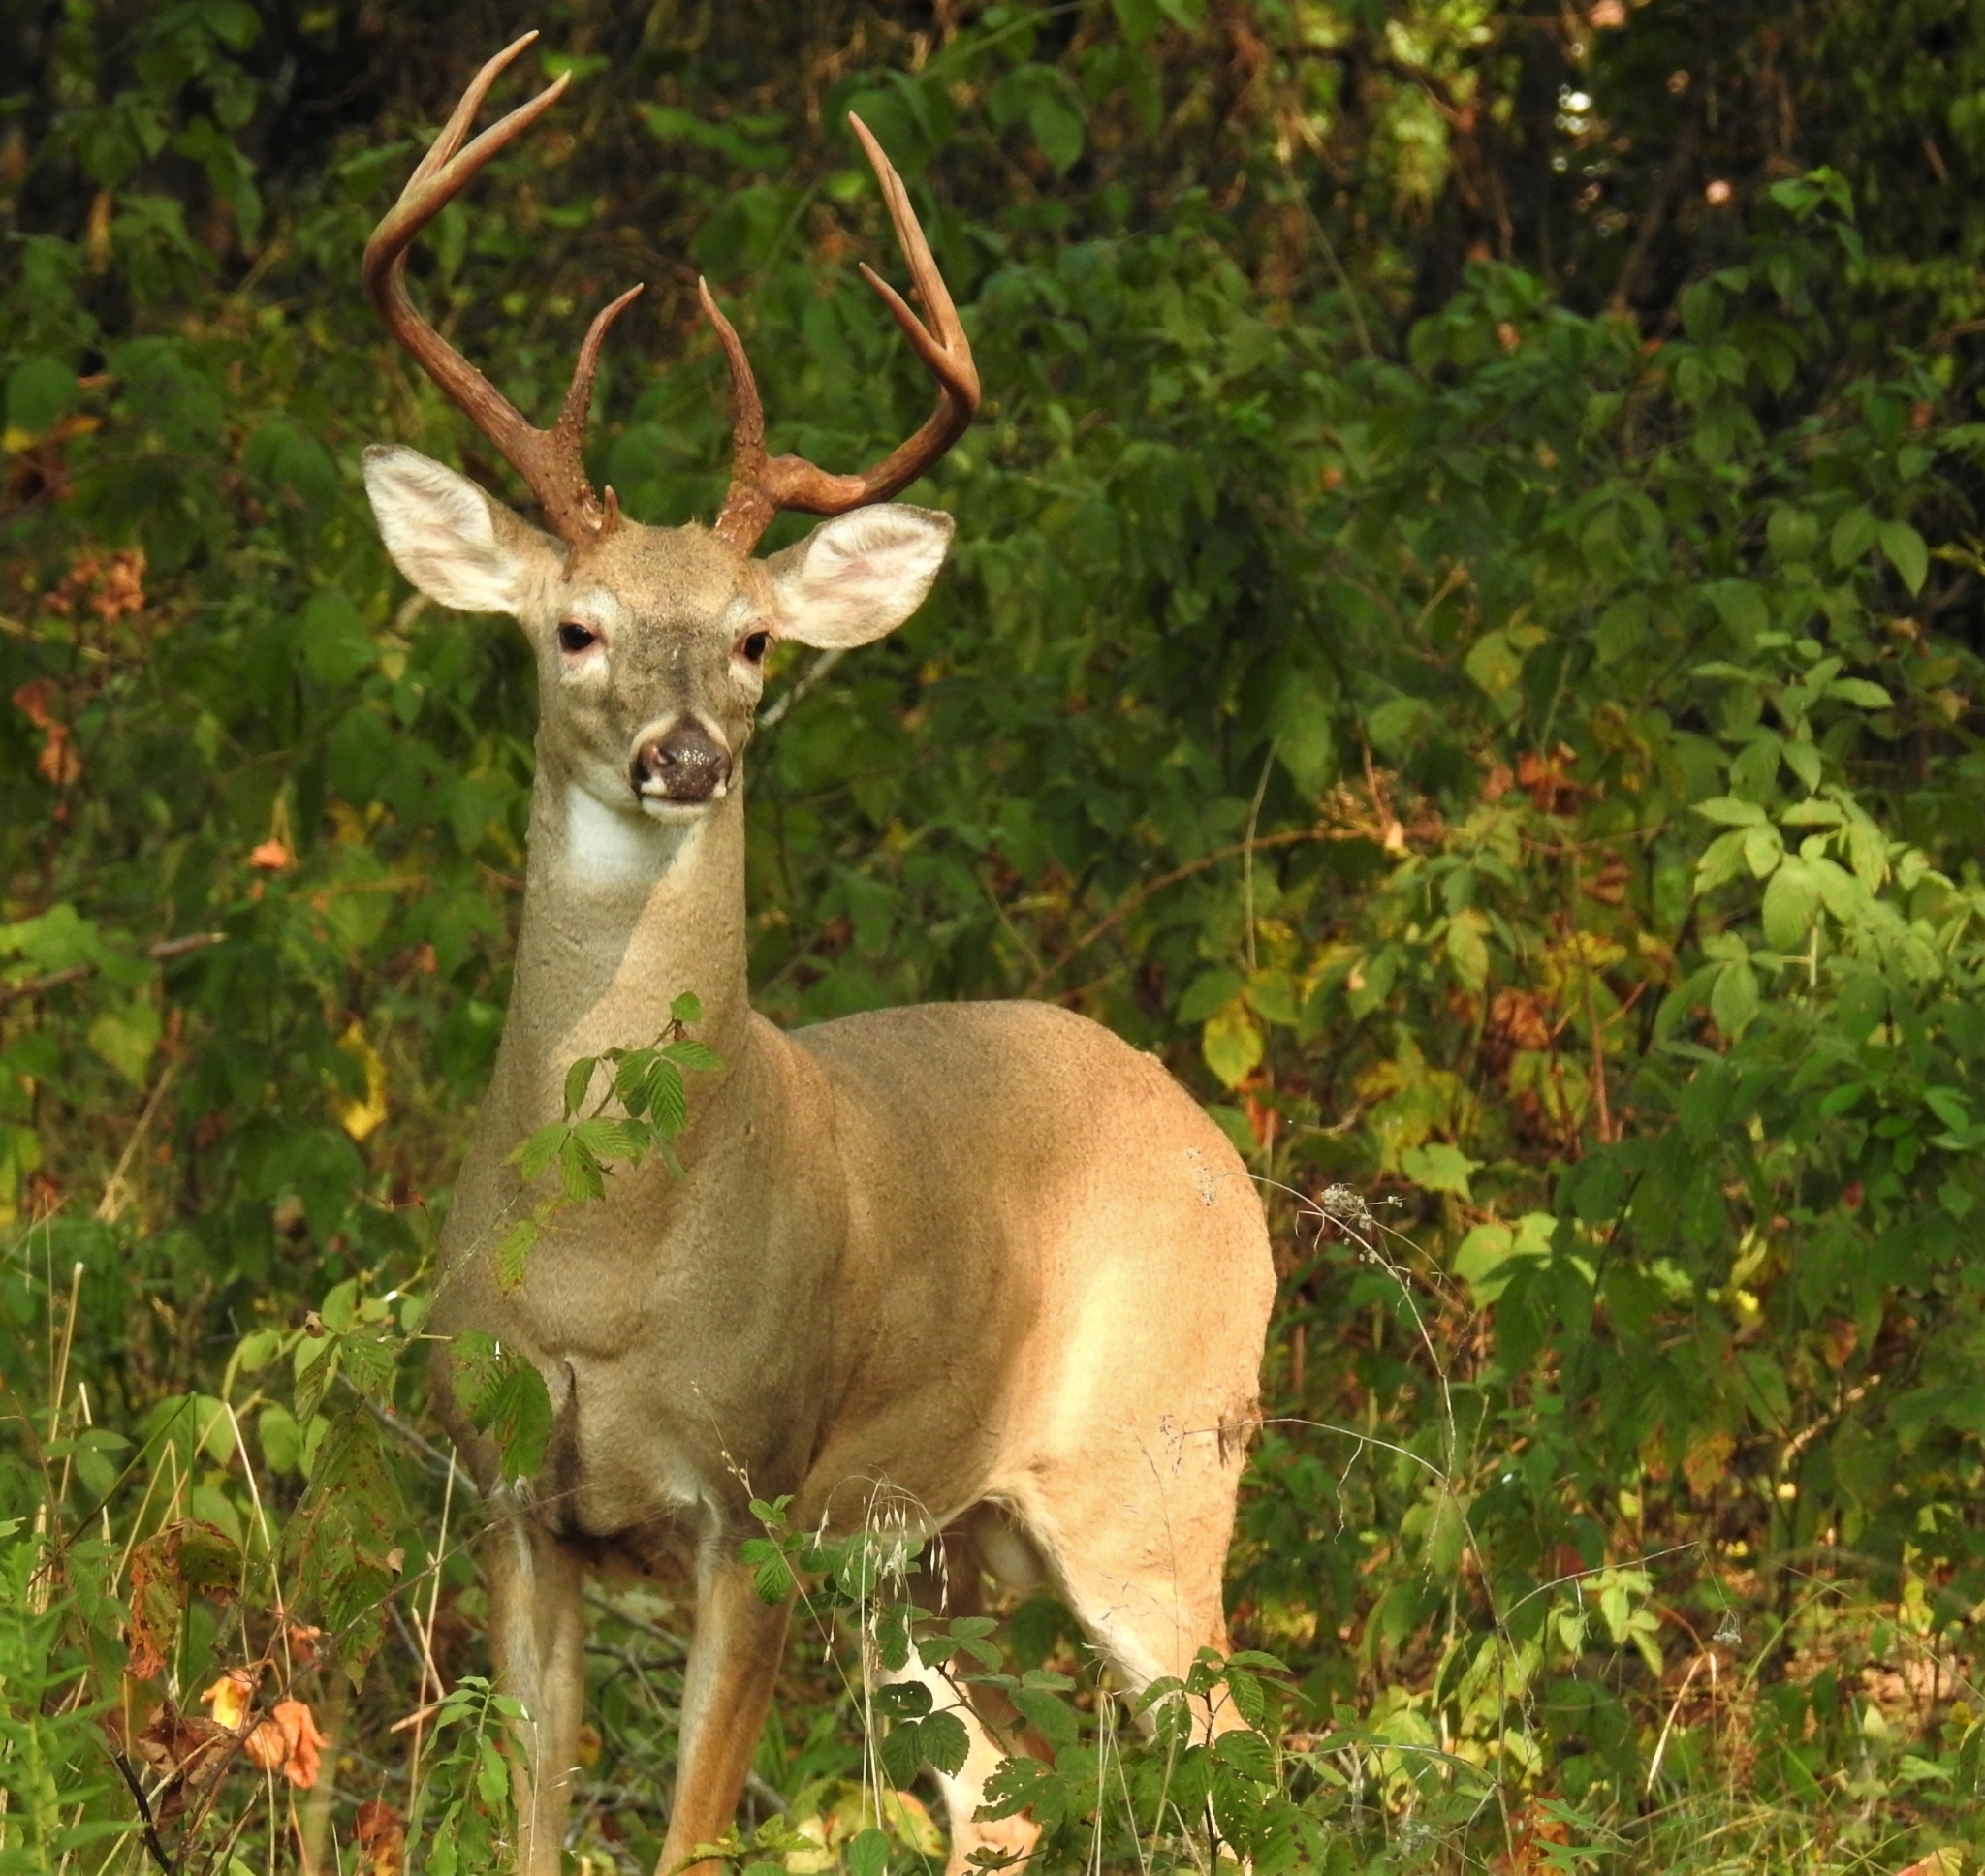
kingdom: Animalia
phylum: Chordata
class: Mammalia
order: Artiodactyla
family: Cervidae
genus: Odocoileus
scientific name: Odocoileus virginianus
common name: White-tailed deer
